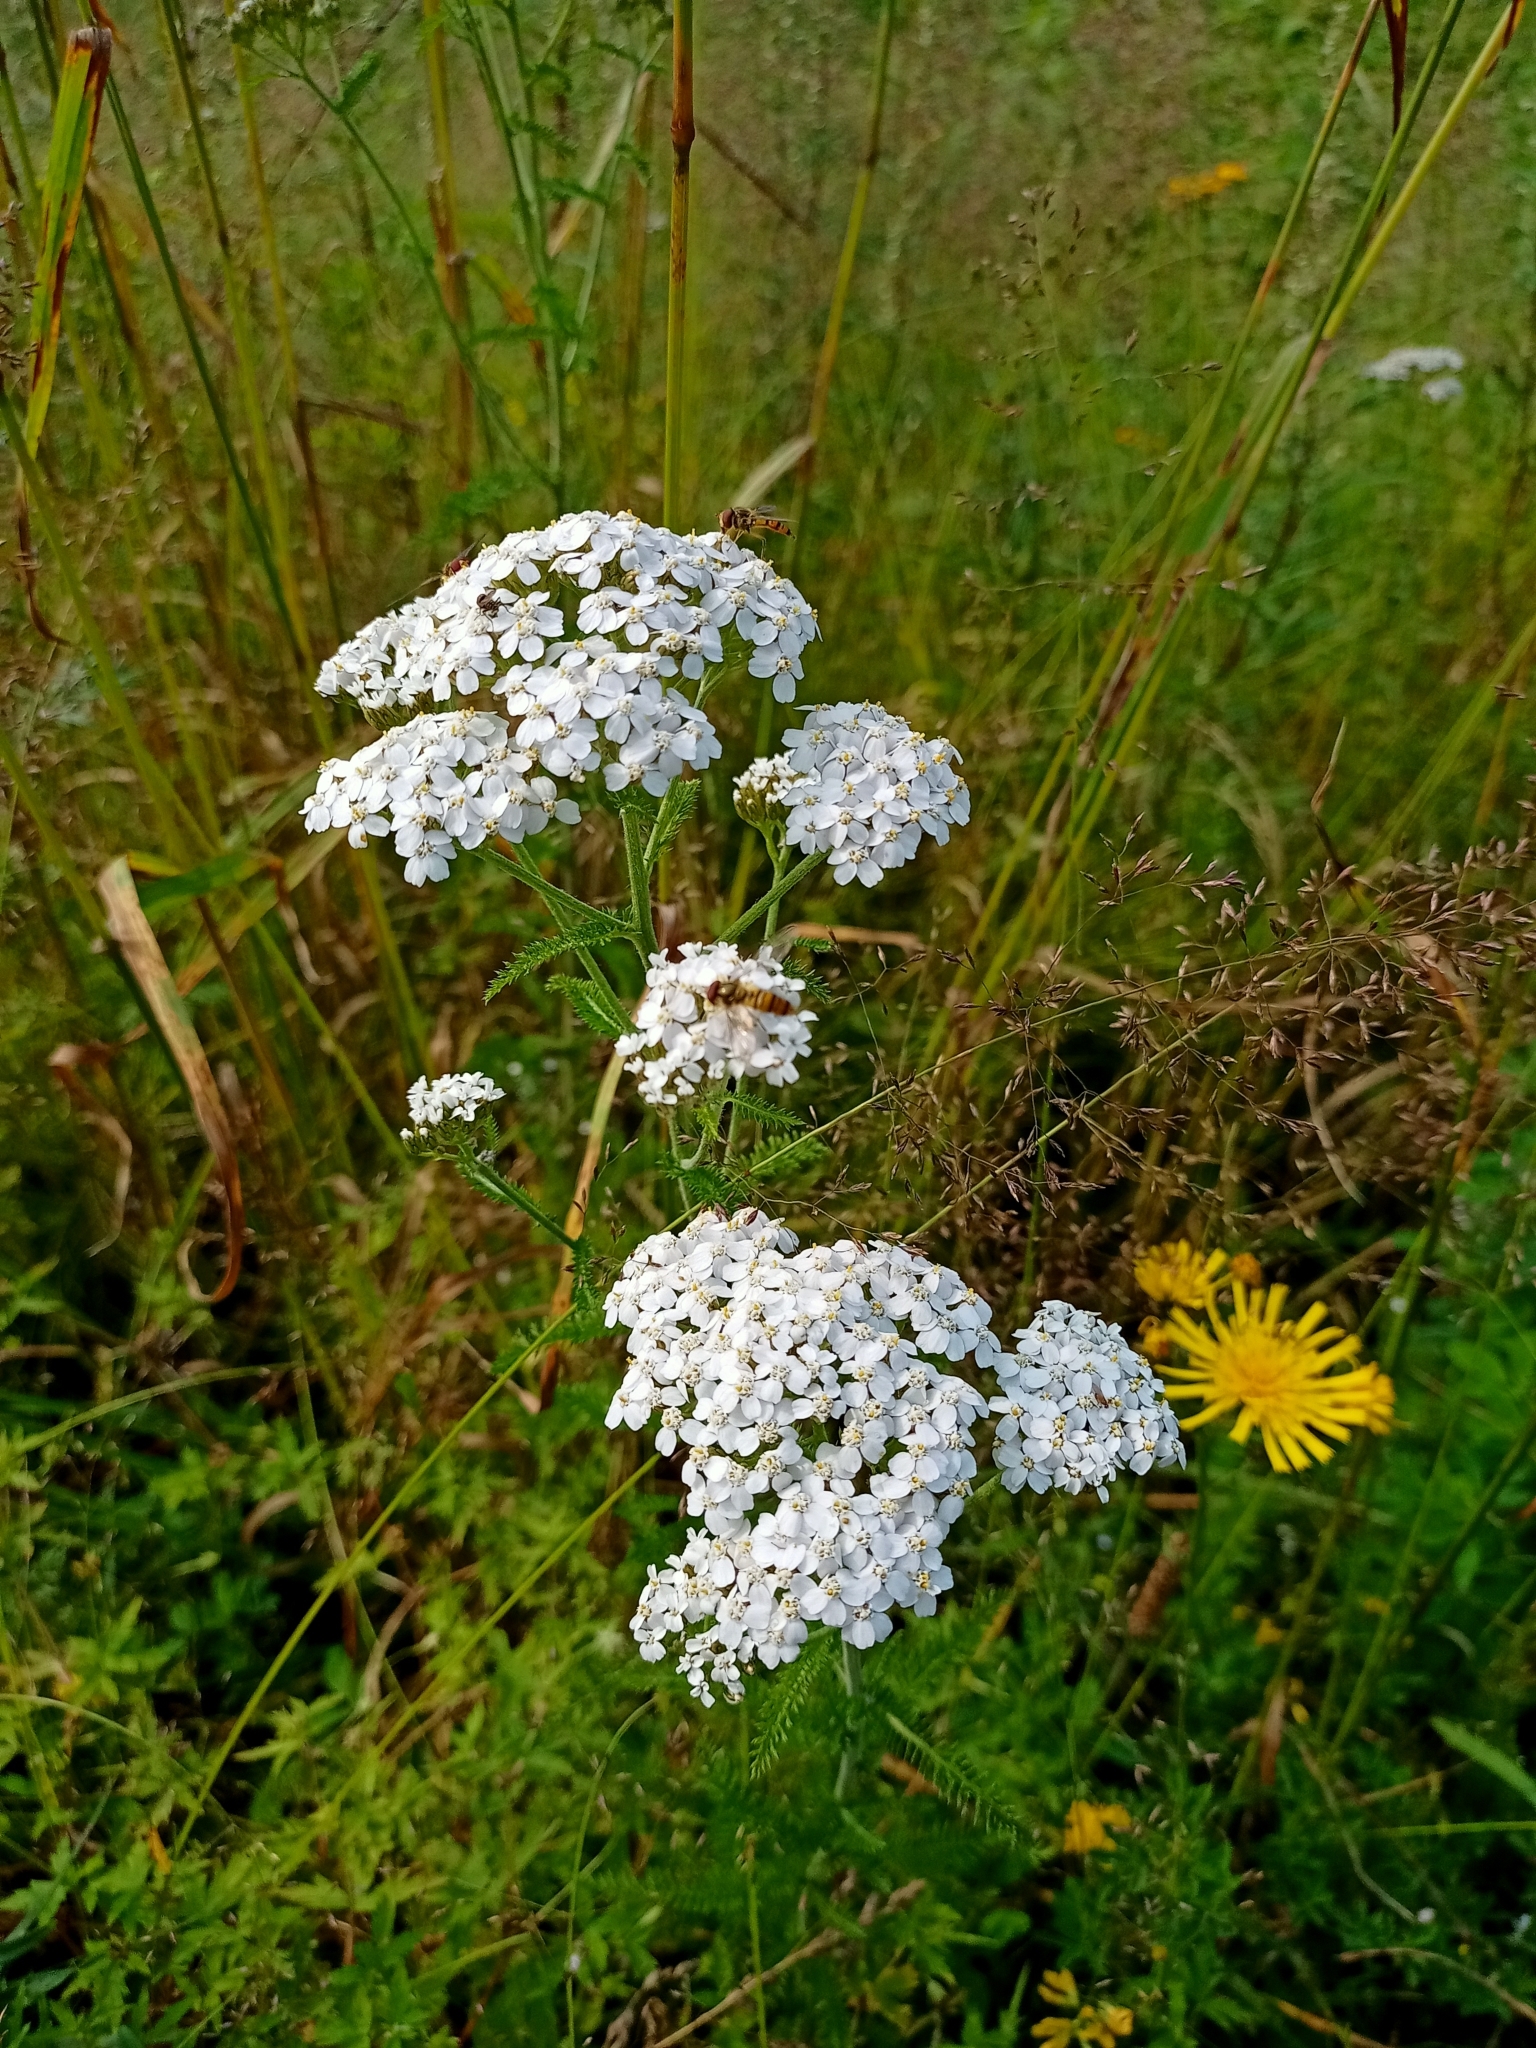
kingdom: Plantae
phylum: Tracheophyta
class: Magnoliopsida
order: Asterales
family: Asteraceae
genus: Achillea
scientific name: Achillea asiatica
